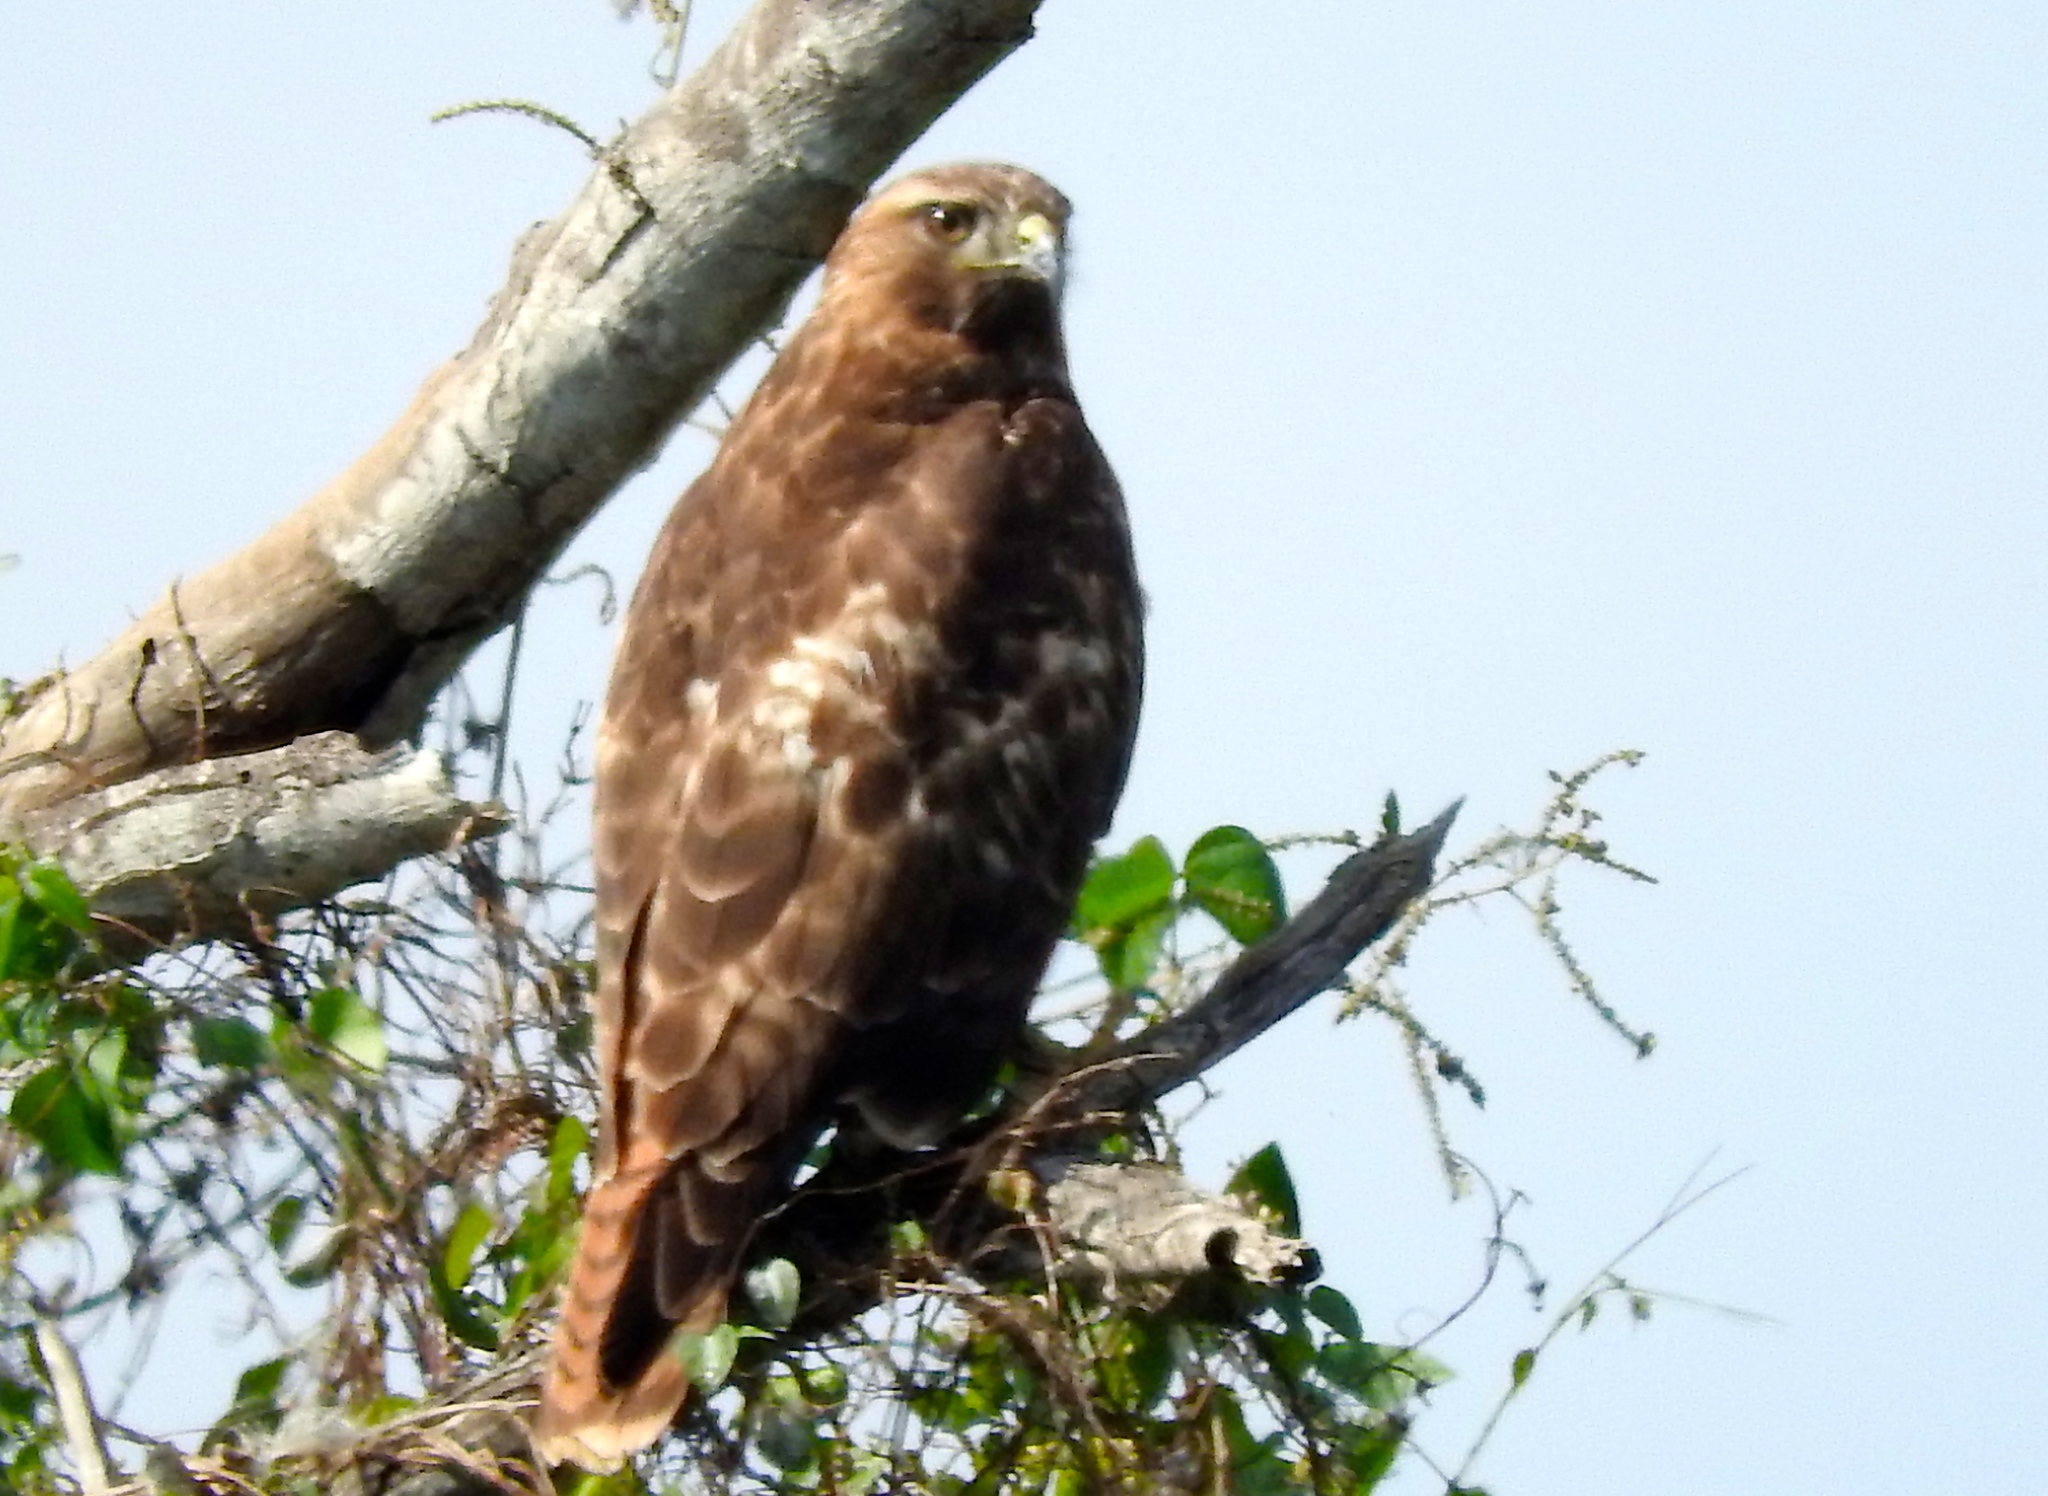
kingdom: Animalia
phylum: Chordata
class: Aves
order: Accipitriformes
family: Accipitridae
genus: Buteo
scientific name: Buteo jamaicensis
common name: Red-tailed hawk
